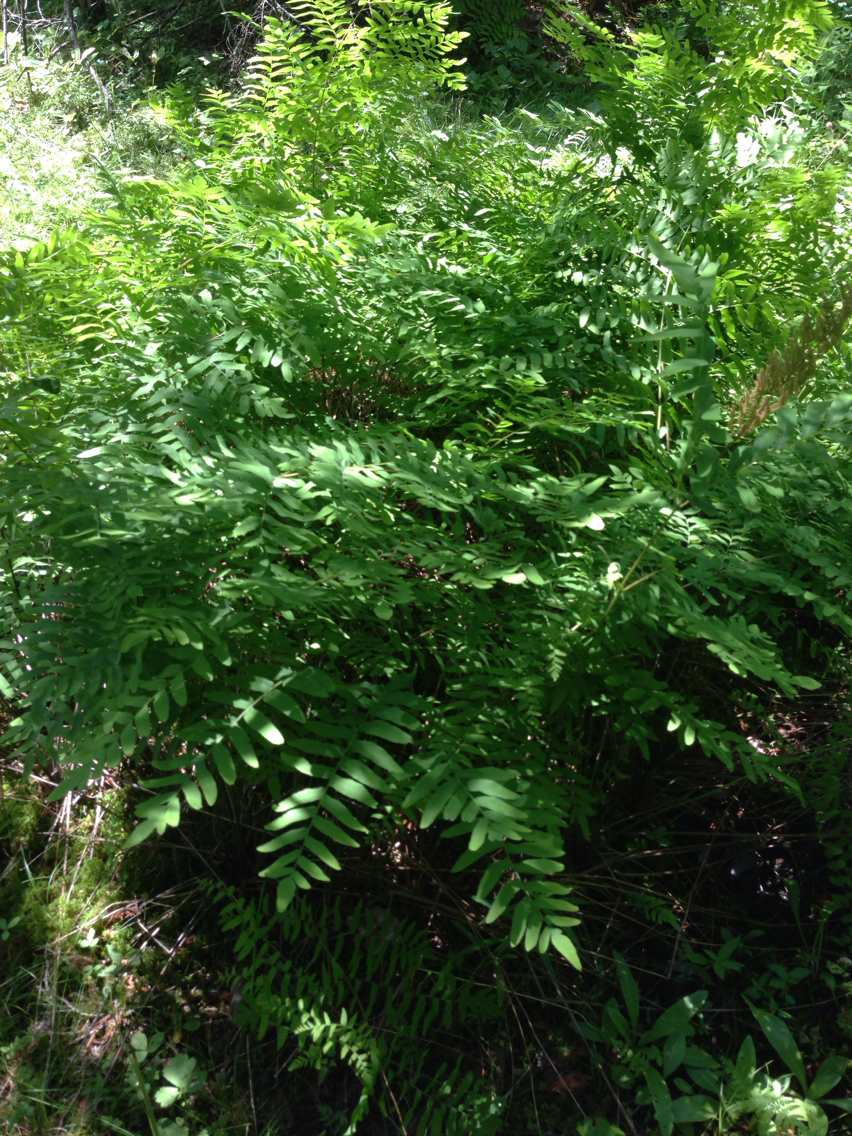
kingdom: Plantae
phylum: Tracheophyta
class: Polypodiopsida
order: Osmundales
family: Osmundaceae
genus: Osmunda
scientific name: Osmunda spectabilis
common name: American royal fern
